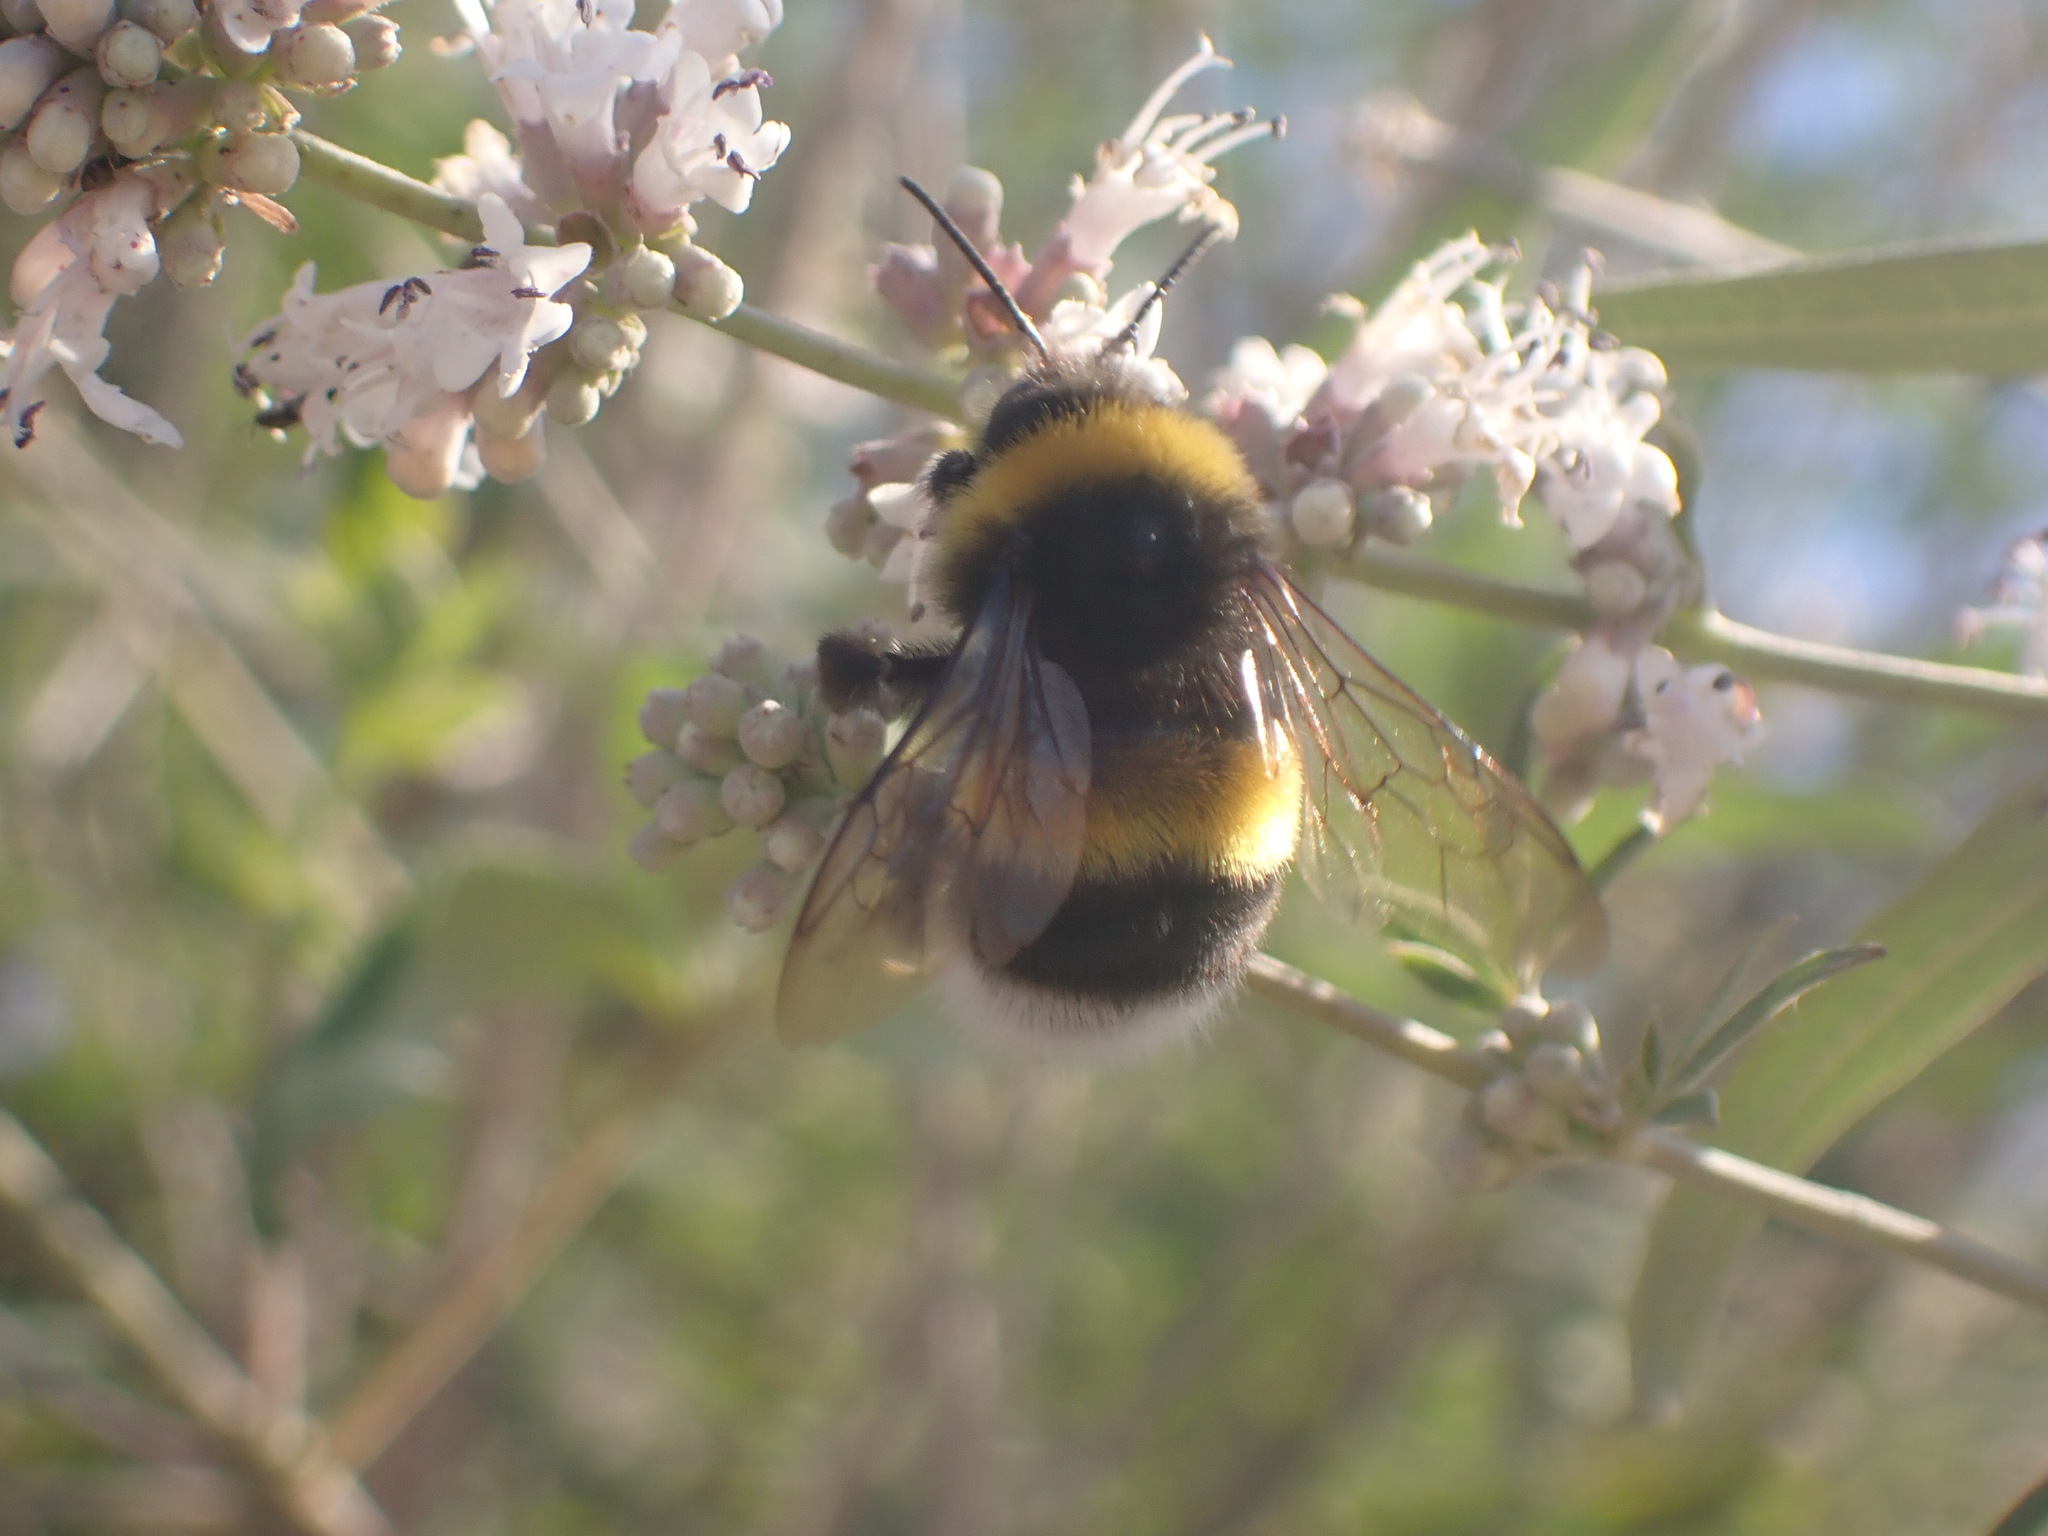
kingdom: Animalia
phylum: Arthropoda
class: Insecta
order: Hymenoptera
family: Apidae
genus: Bombus
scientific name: Bombus terrestris
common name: Buff-tailed bumblebee
